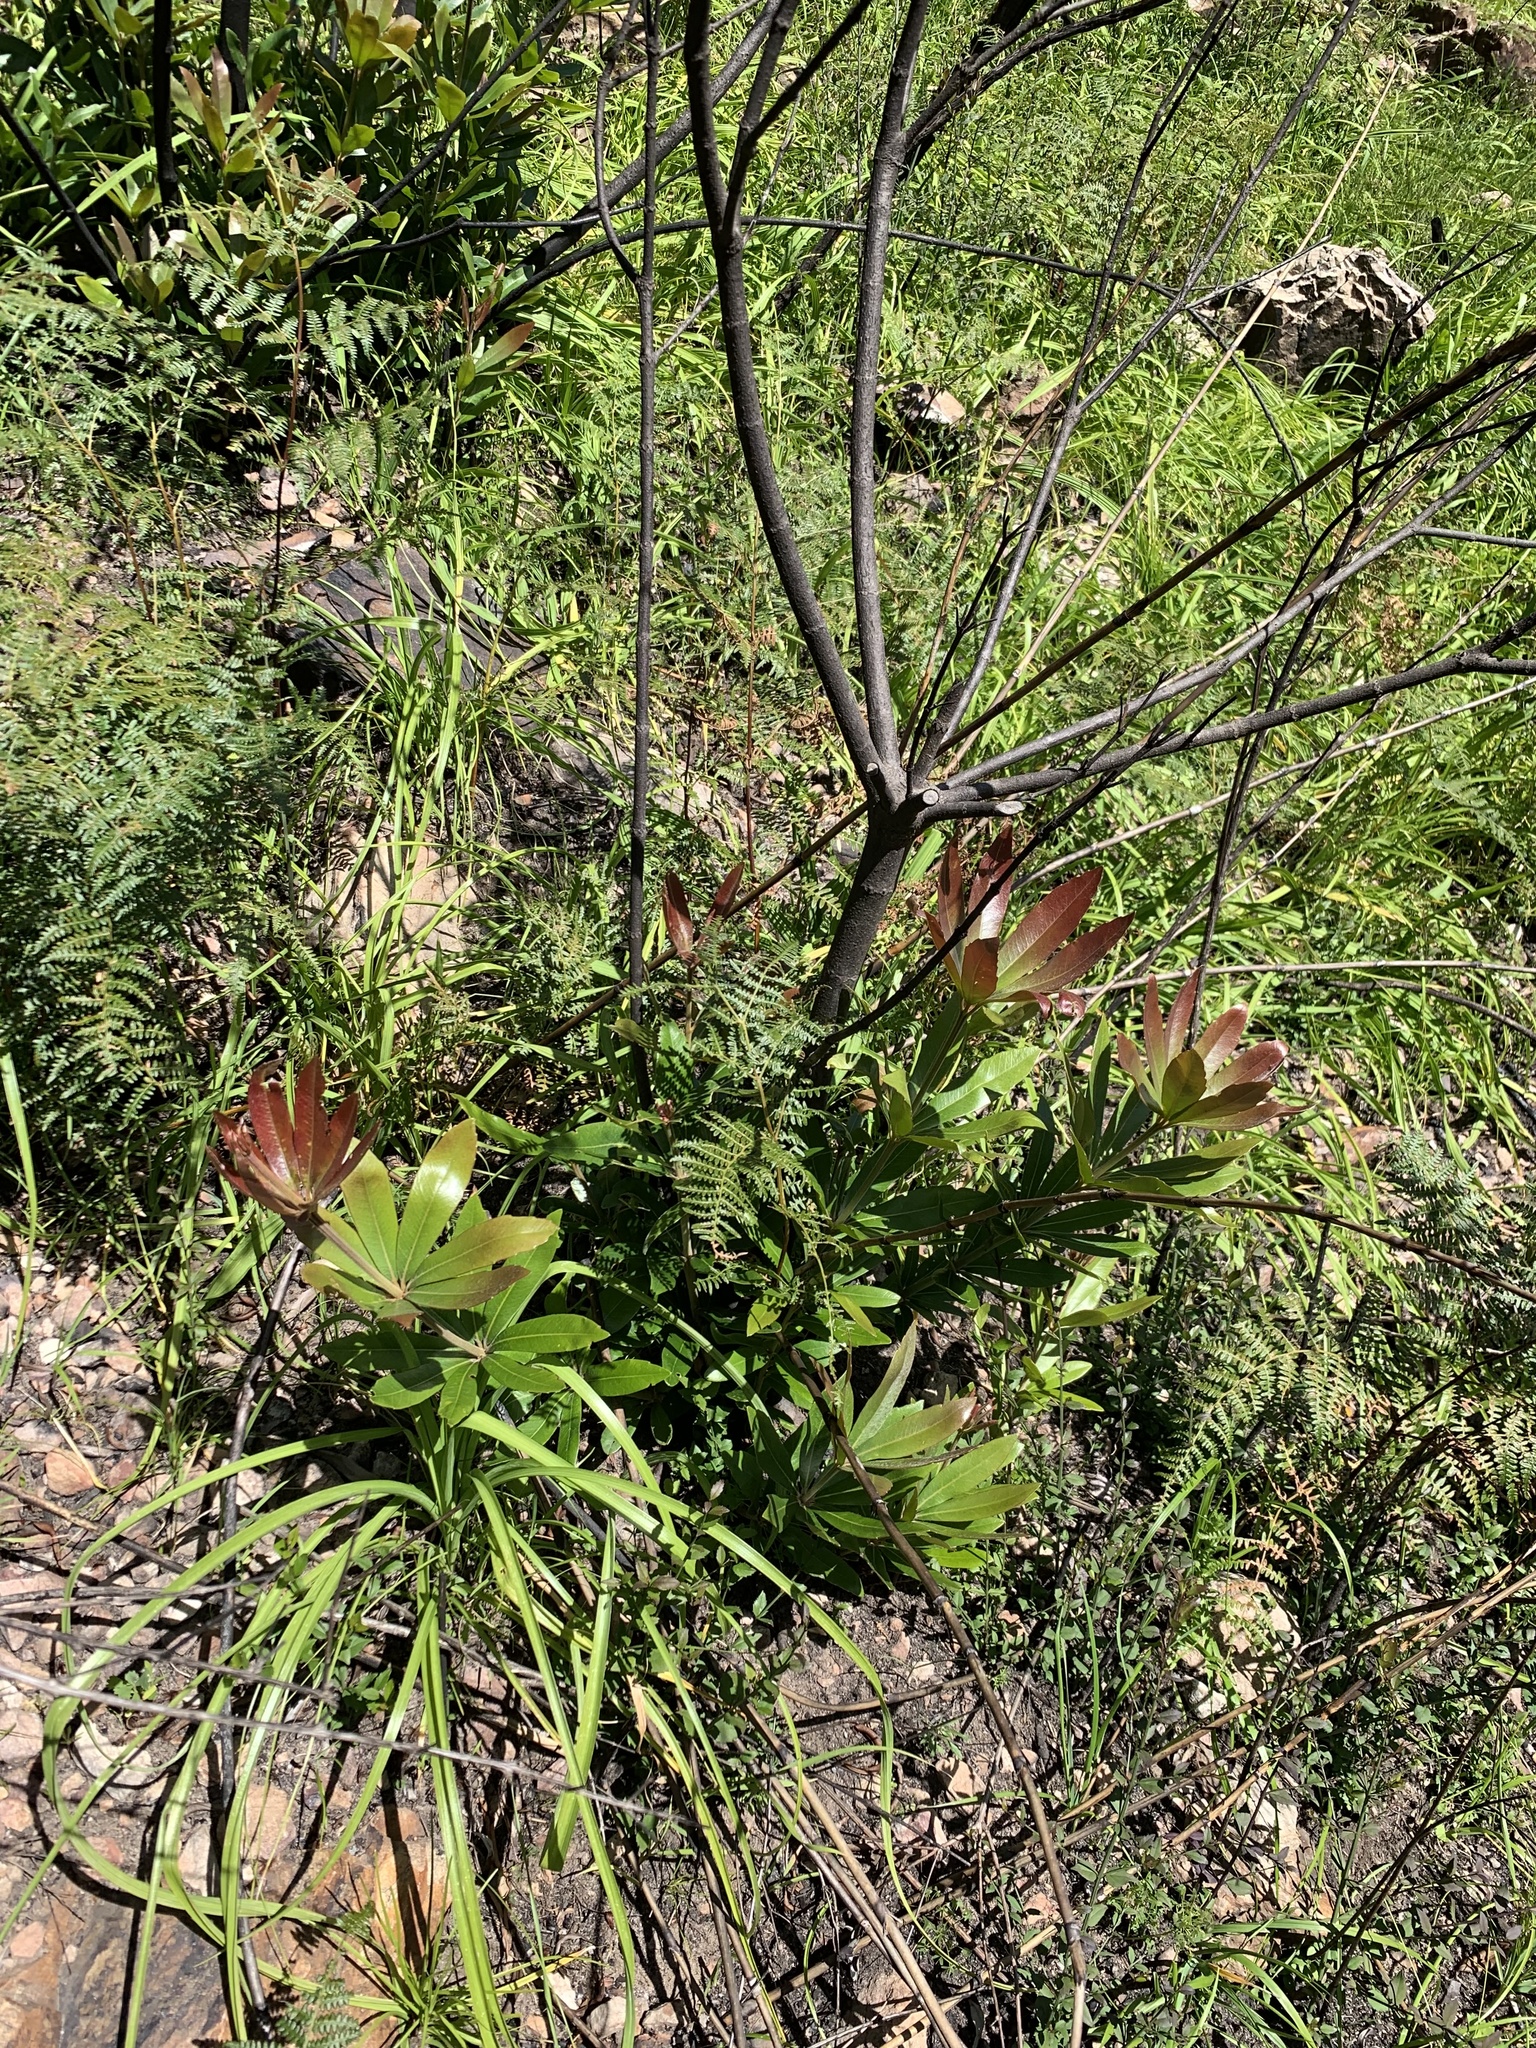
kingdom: Plantae
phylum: Tracheophyta
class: Magnoliopsida
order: Proteales
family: Proteaceae
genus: Brabejum
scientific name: Brabejum stellatifolium
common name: Wild almond
